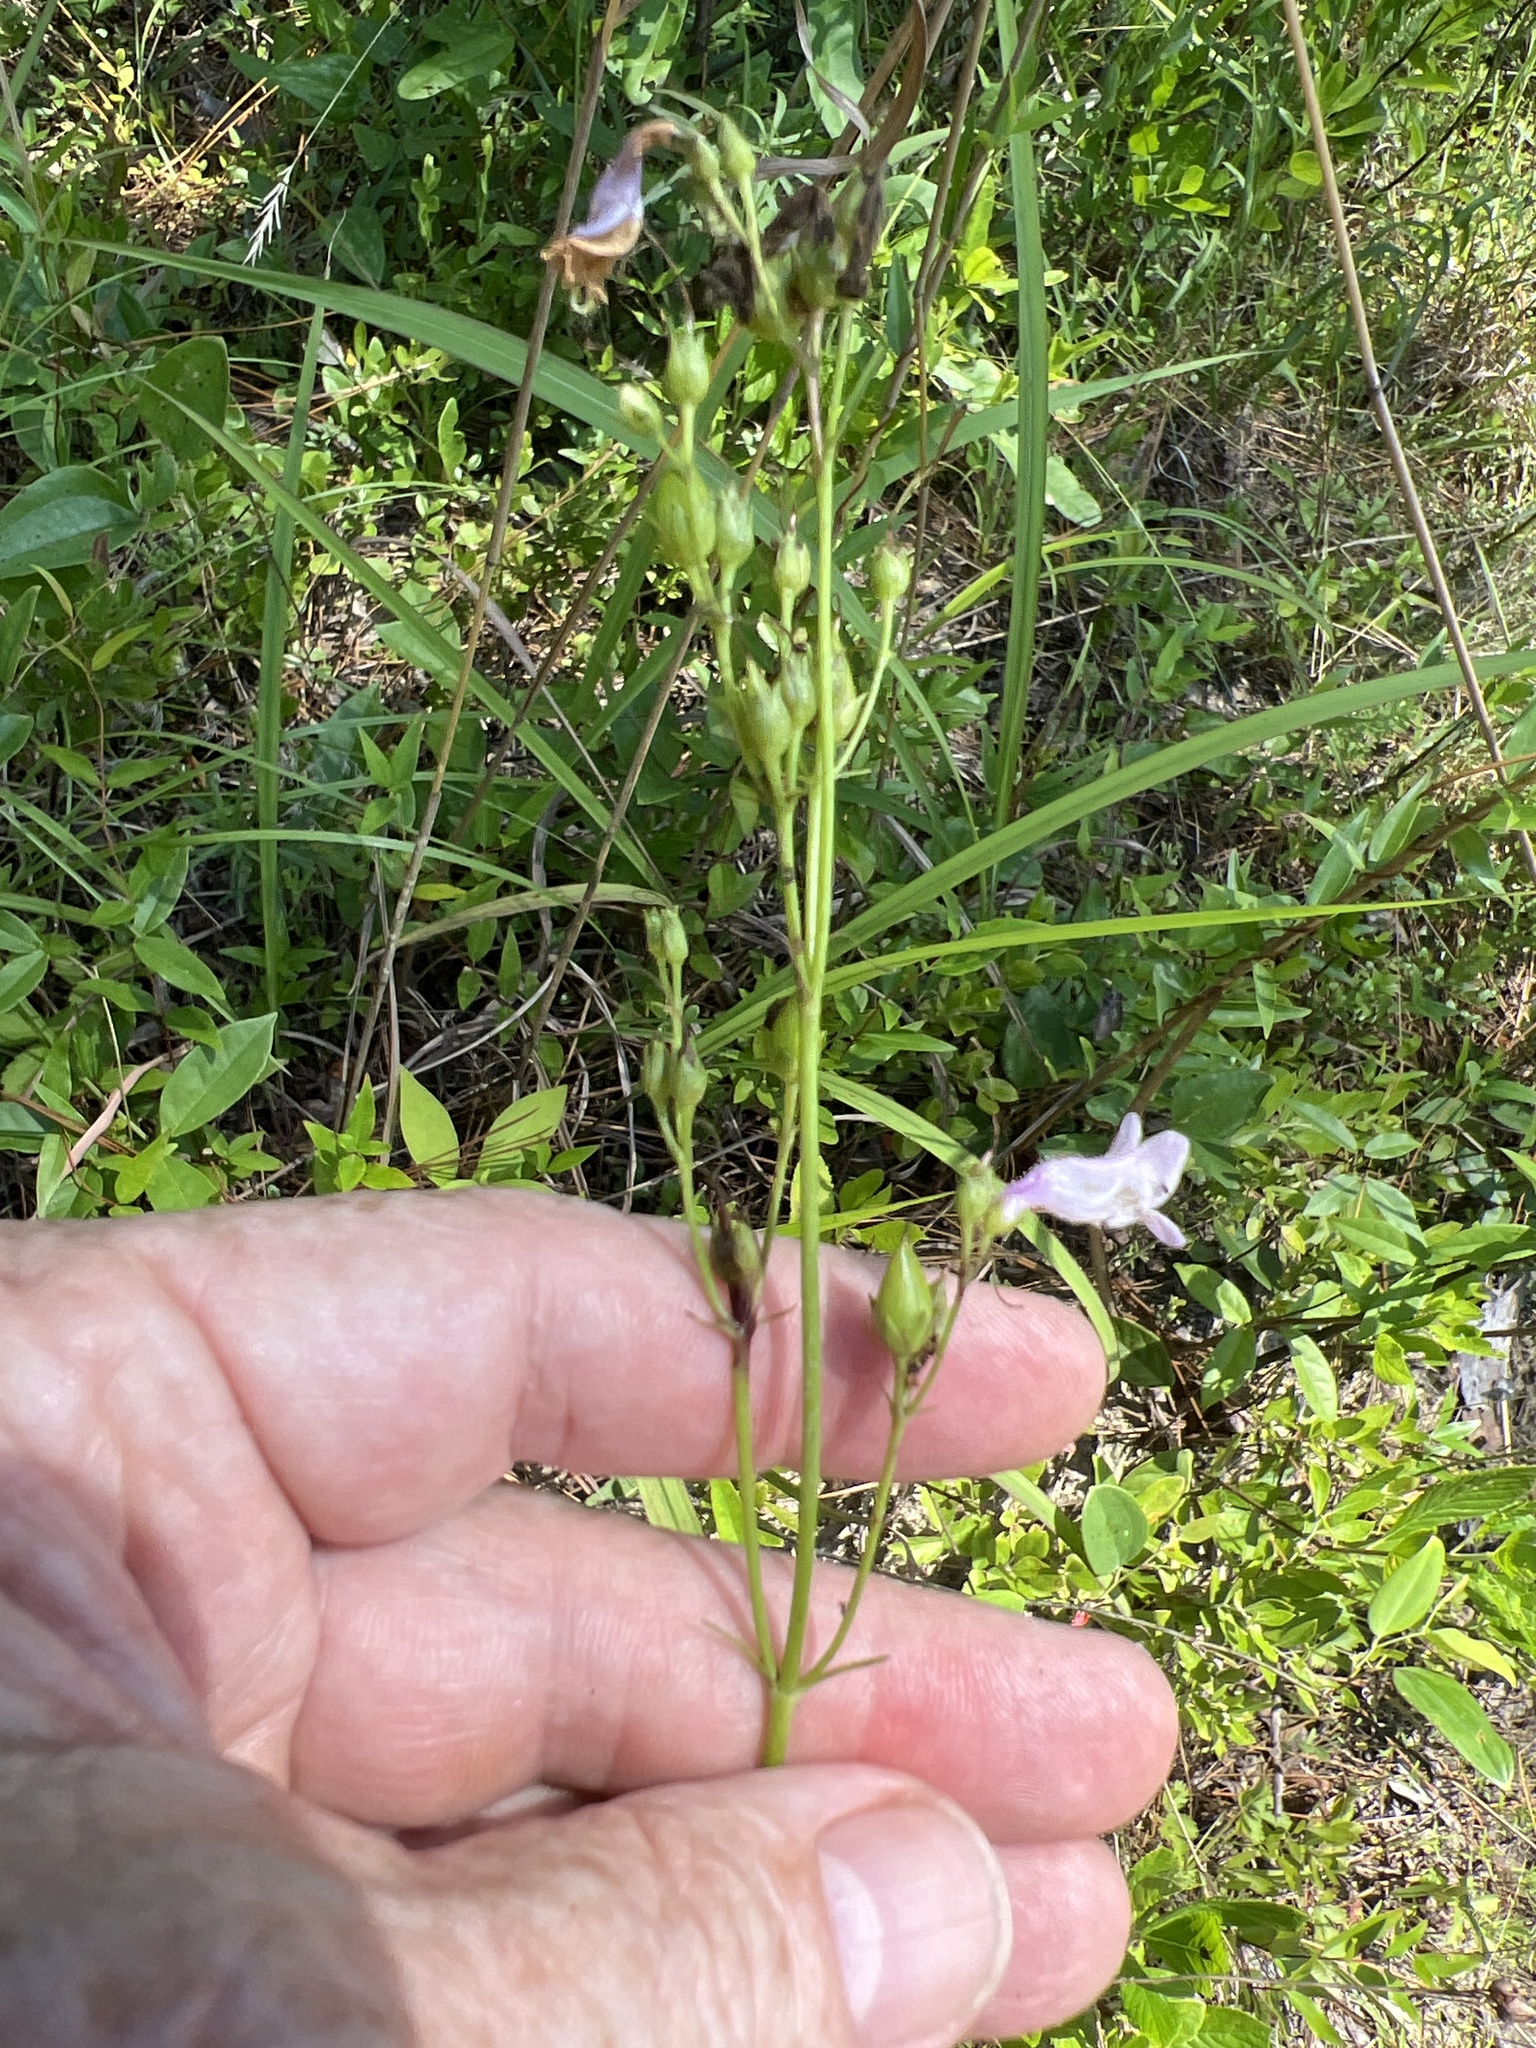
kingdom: Plantae
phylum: Tracheophyta
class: Magnoliopsida
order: Lamiales
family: Plantaginaceae
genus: Penstemon
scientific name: Penstemon laevigatus
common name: Eastern beardtongue
